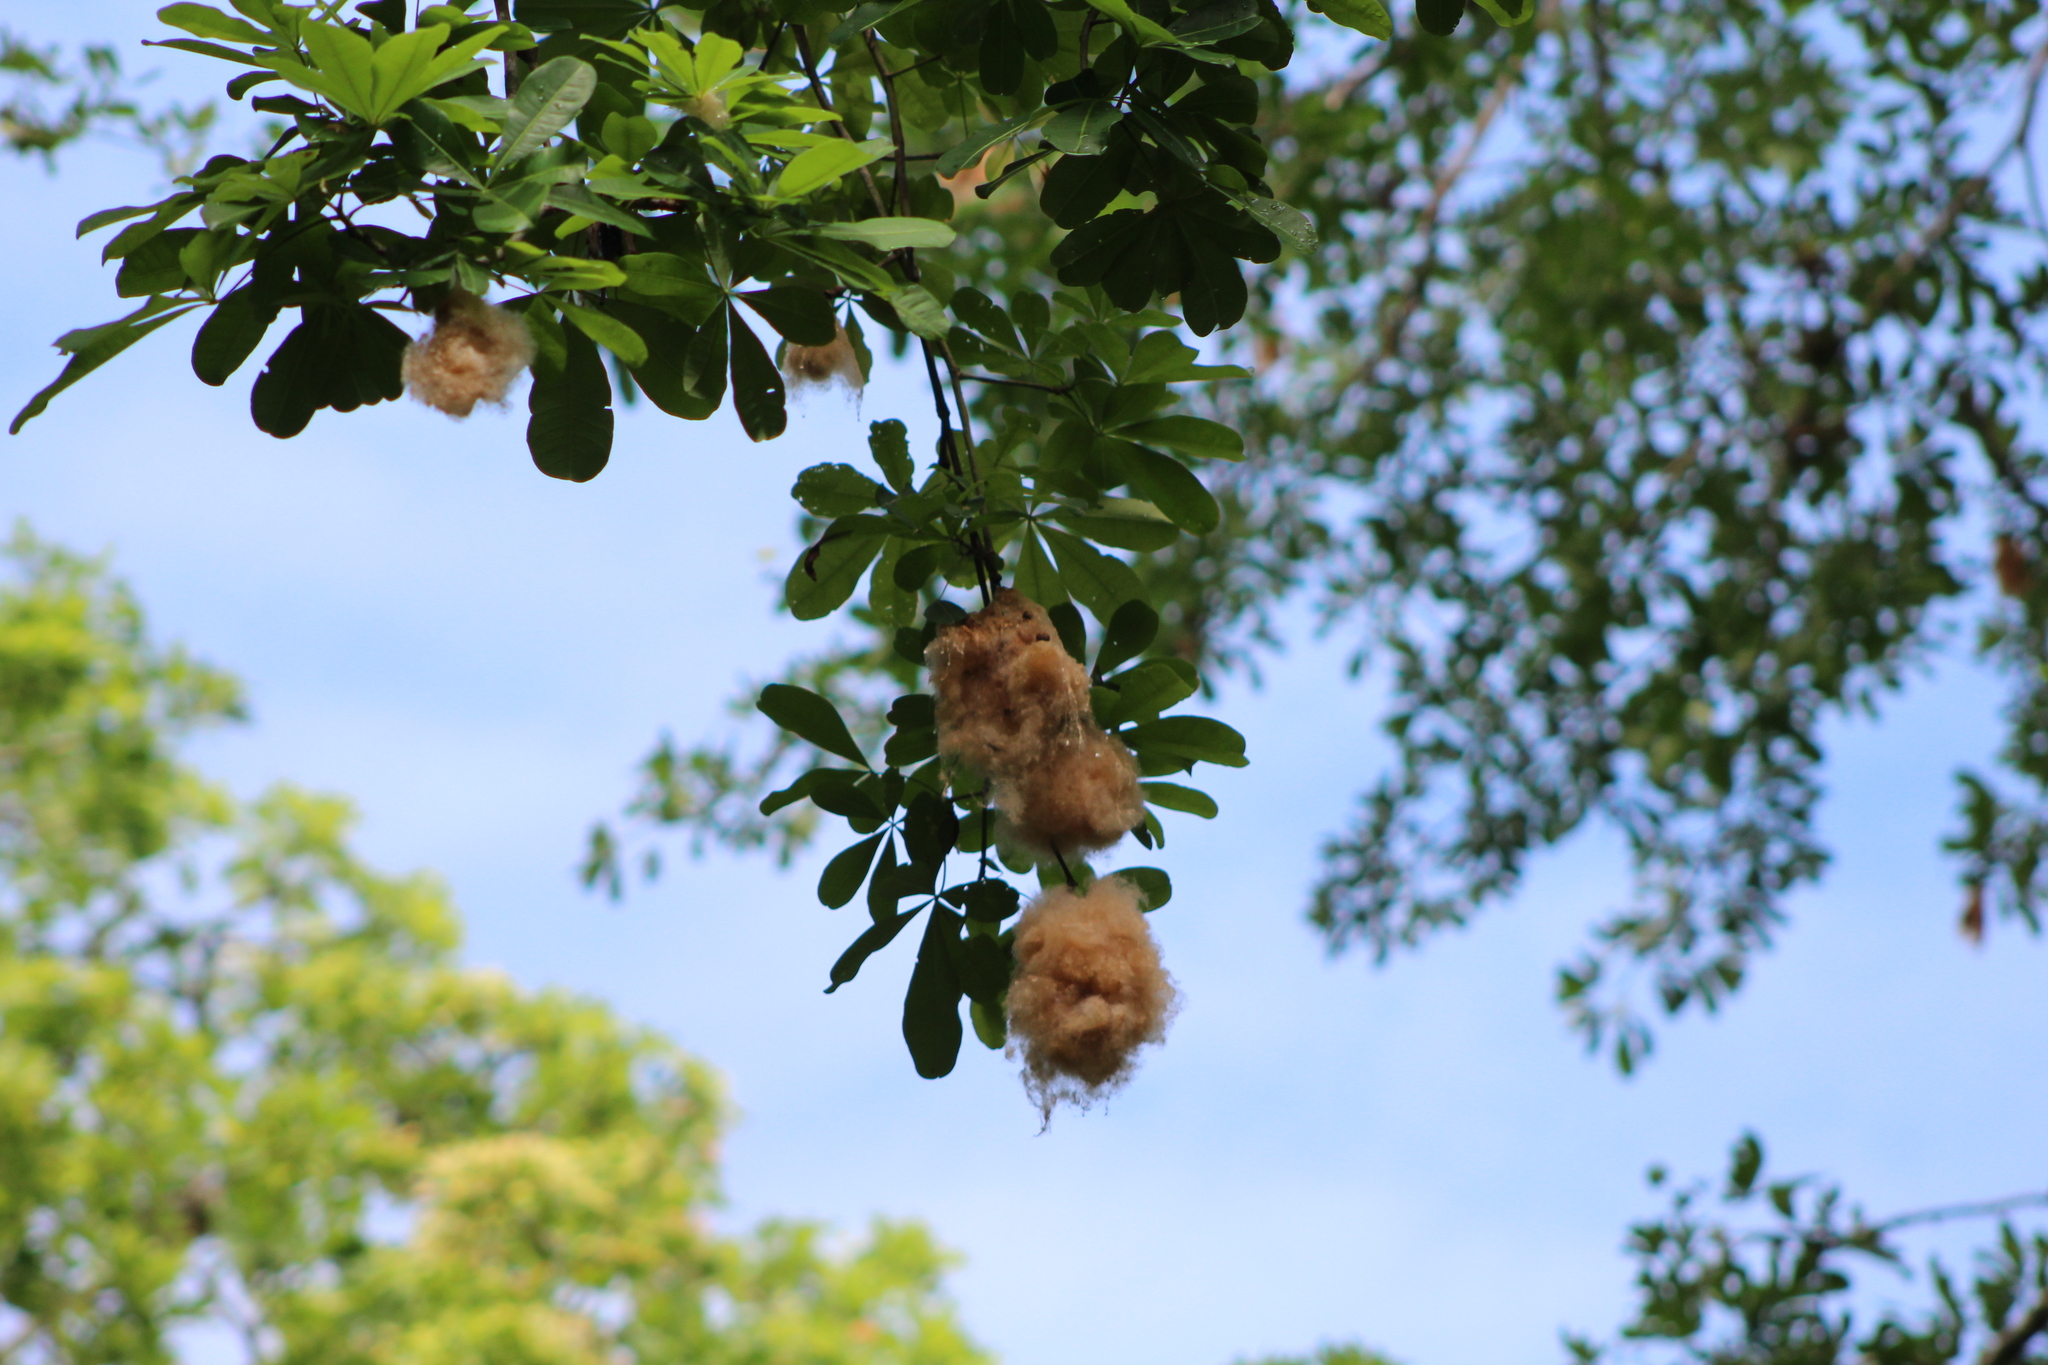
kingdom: Plantae
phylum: Tracheophyta
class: Magnoliopsida
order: Malvales
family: Malvaceae
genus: Pachira
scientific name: Pachira sessilis
